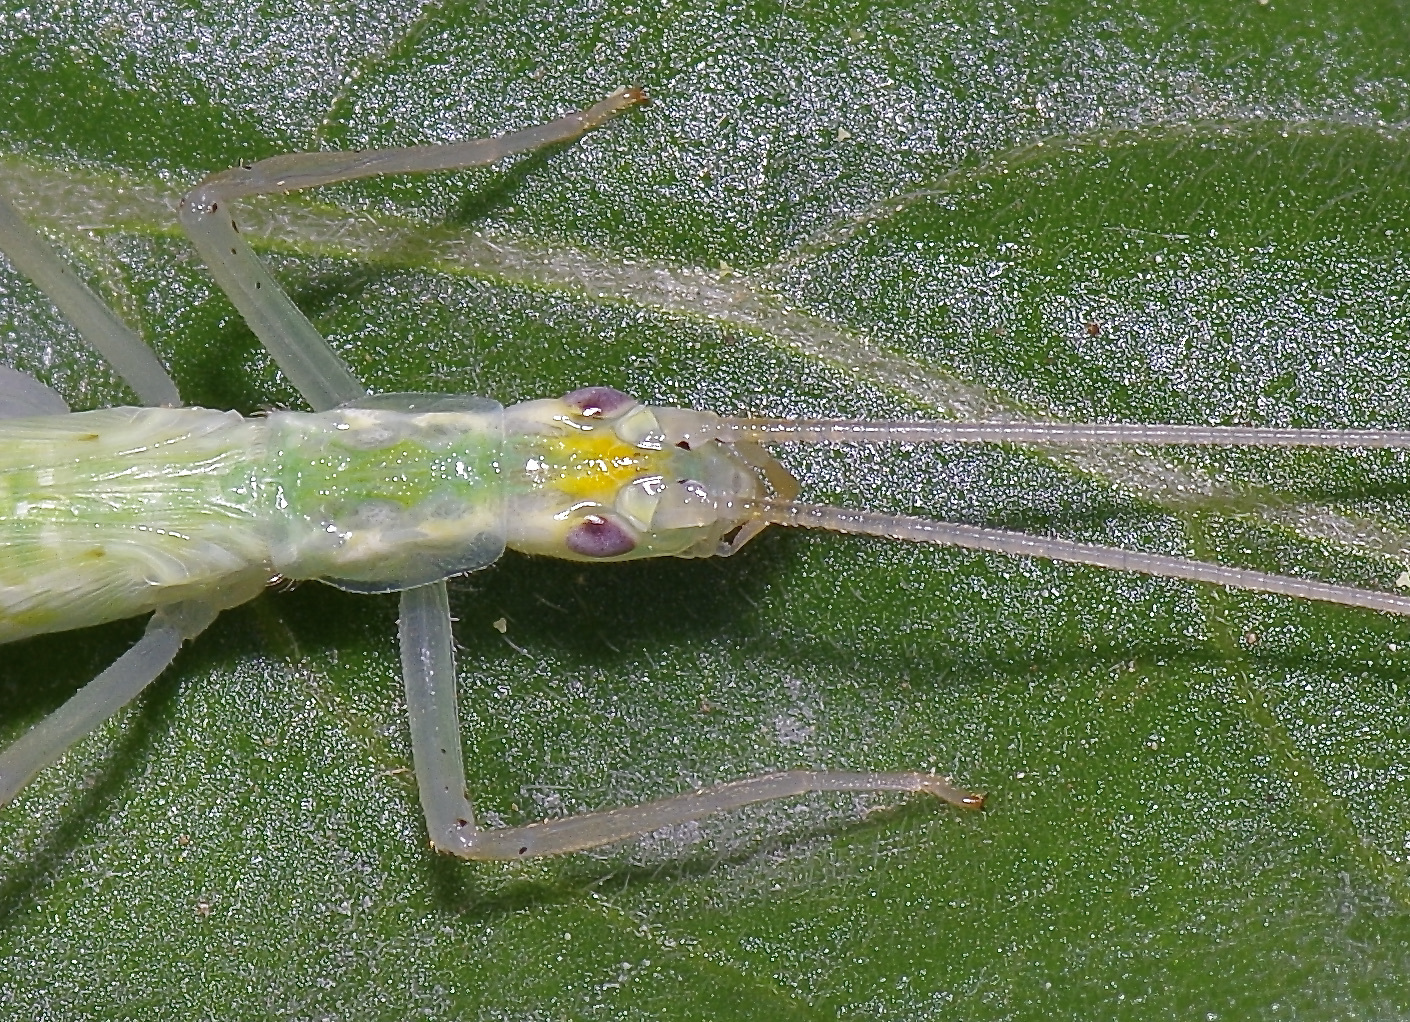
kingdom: Animalia
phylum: Arthropoda
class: Insecta
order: Orthoptera
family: Gryllidae
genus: Oecanthus
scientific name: Oecanthus niveus
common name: Narrow-winged tree cricket
